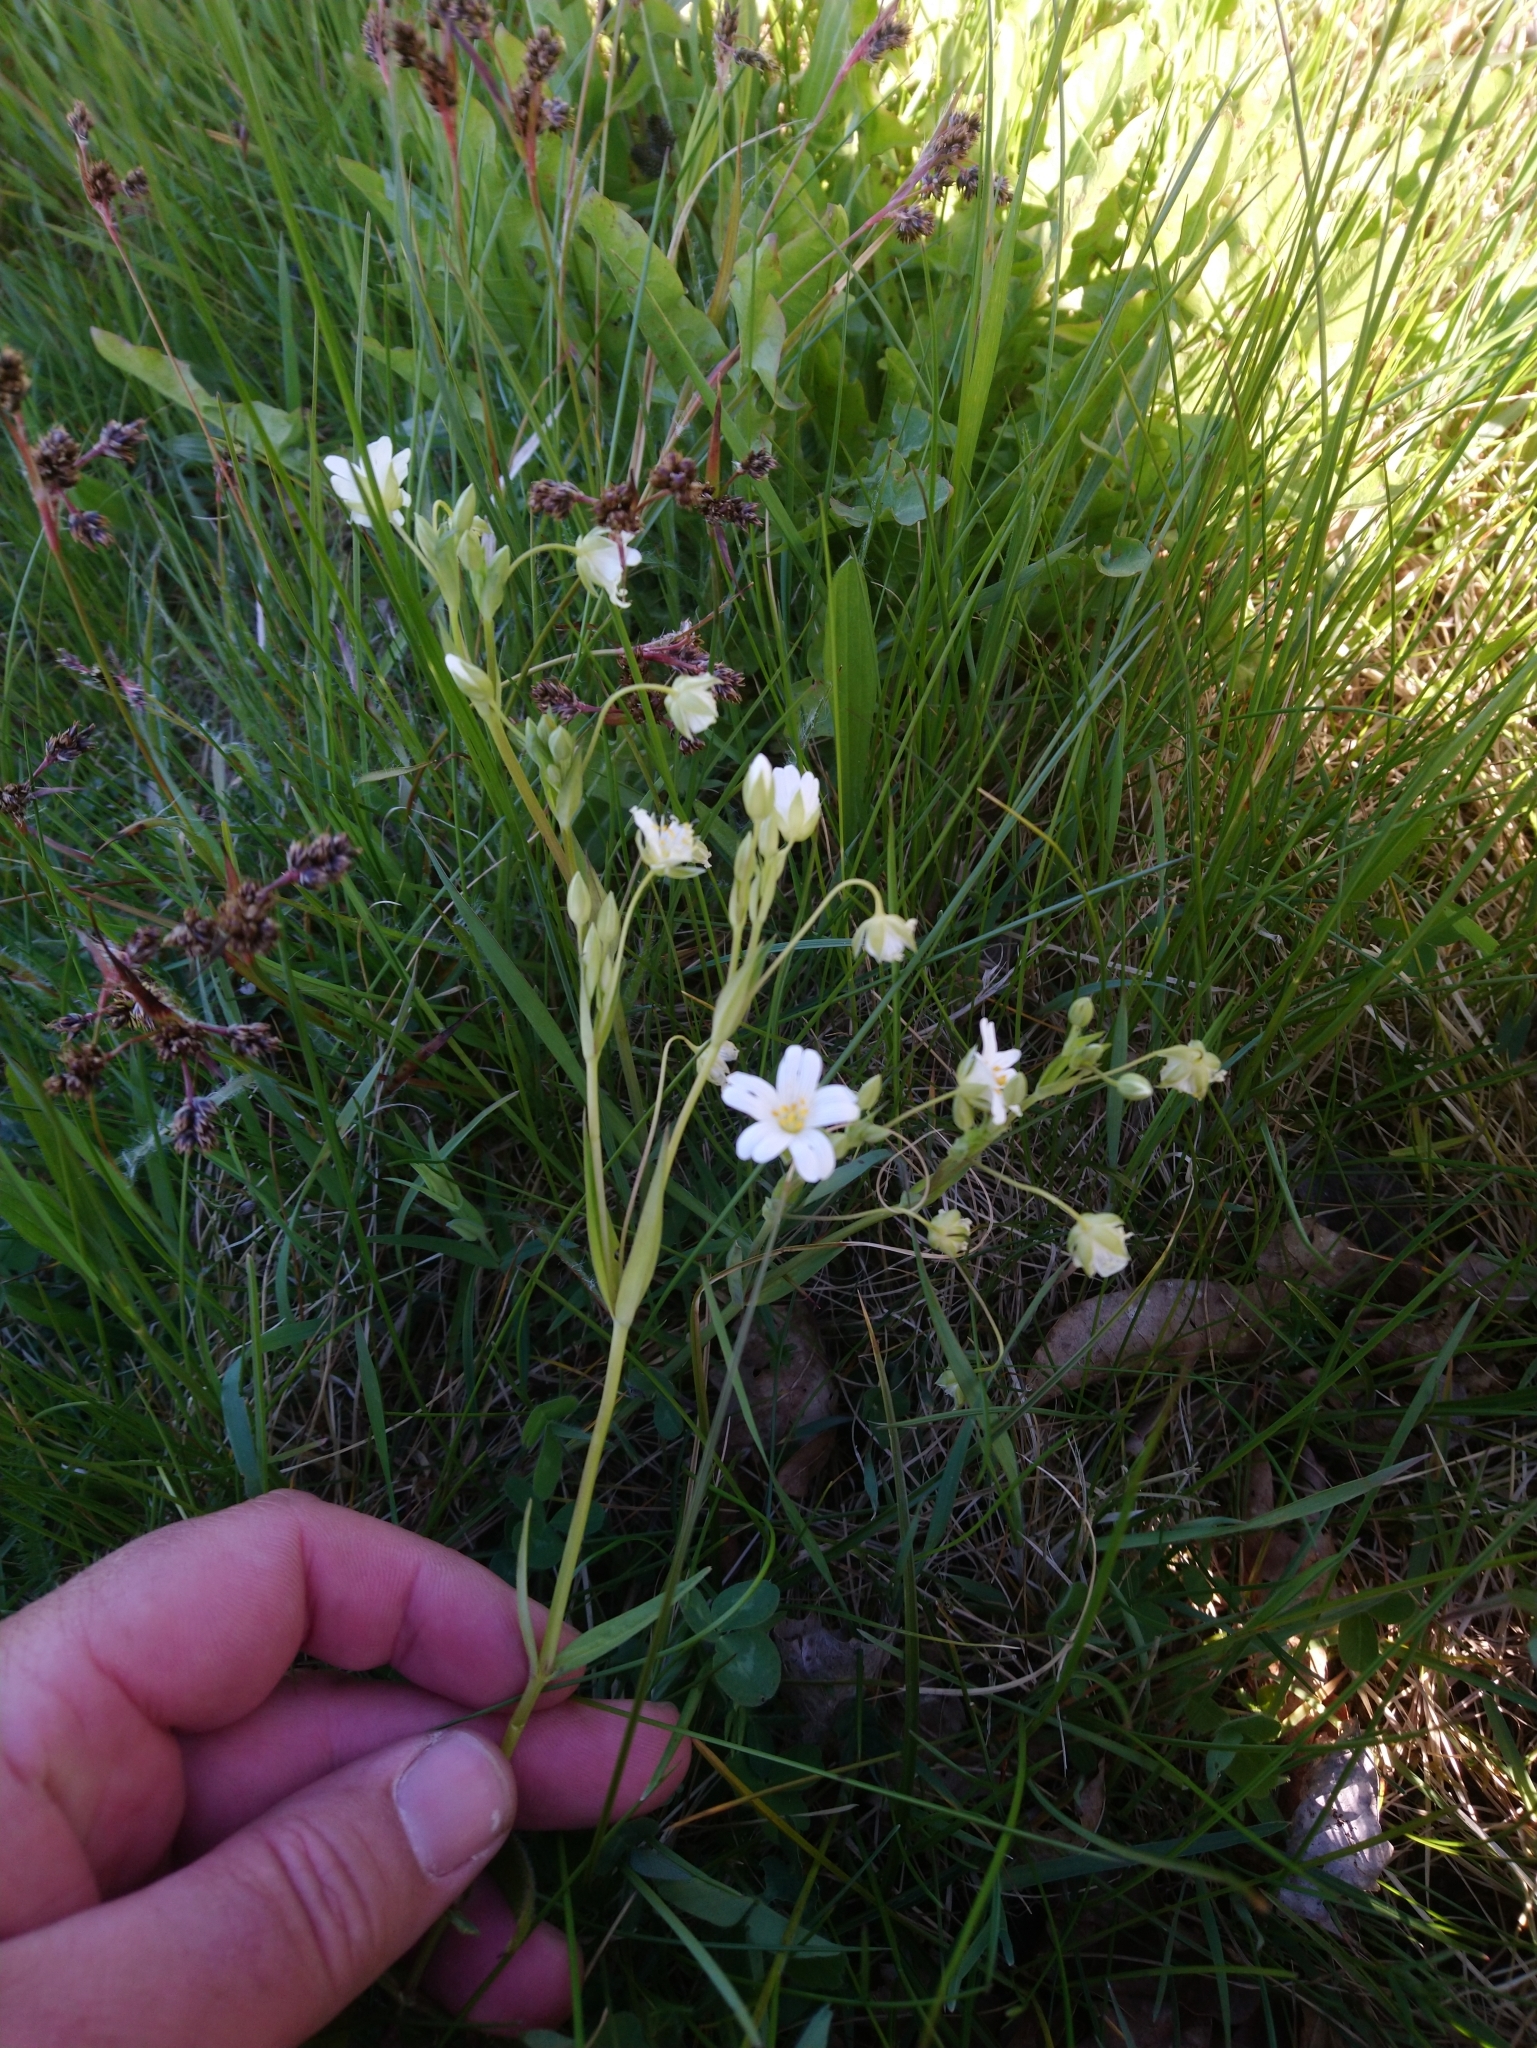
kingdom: Plantae
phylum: Tracheophyta
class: Magnoliopsida
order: Caryophyllales
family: Caryophyllaceae
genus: Rabelera
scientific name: Rabelera holostea
